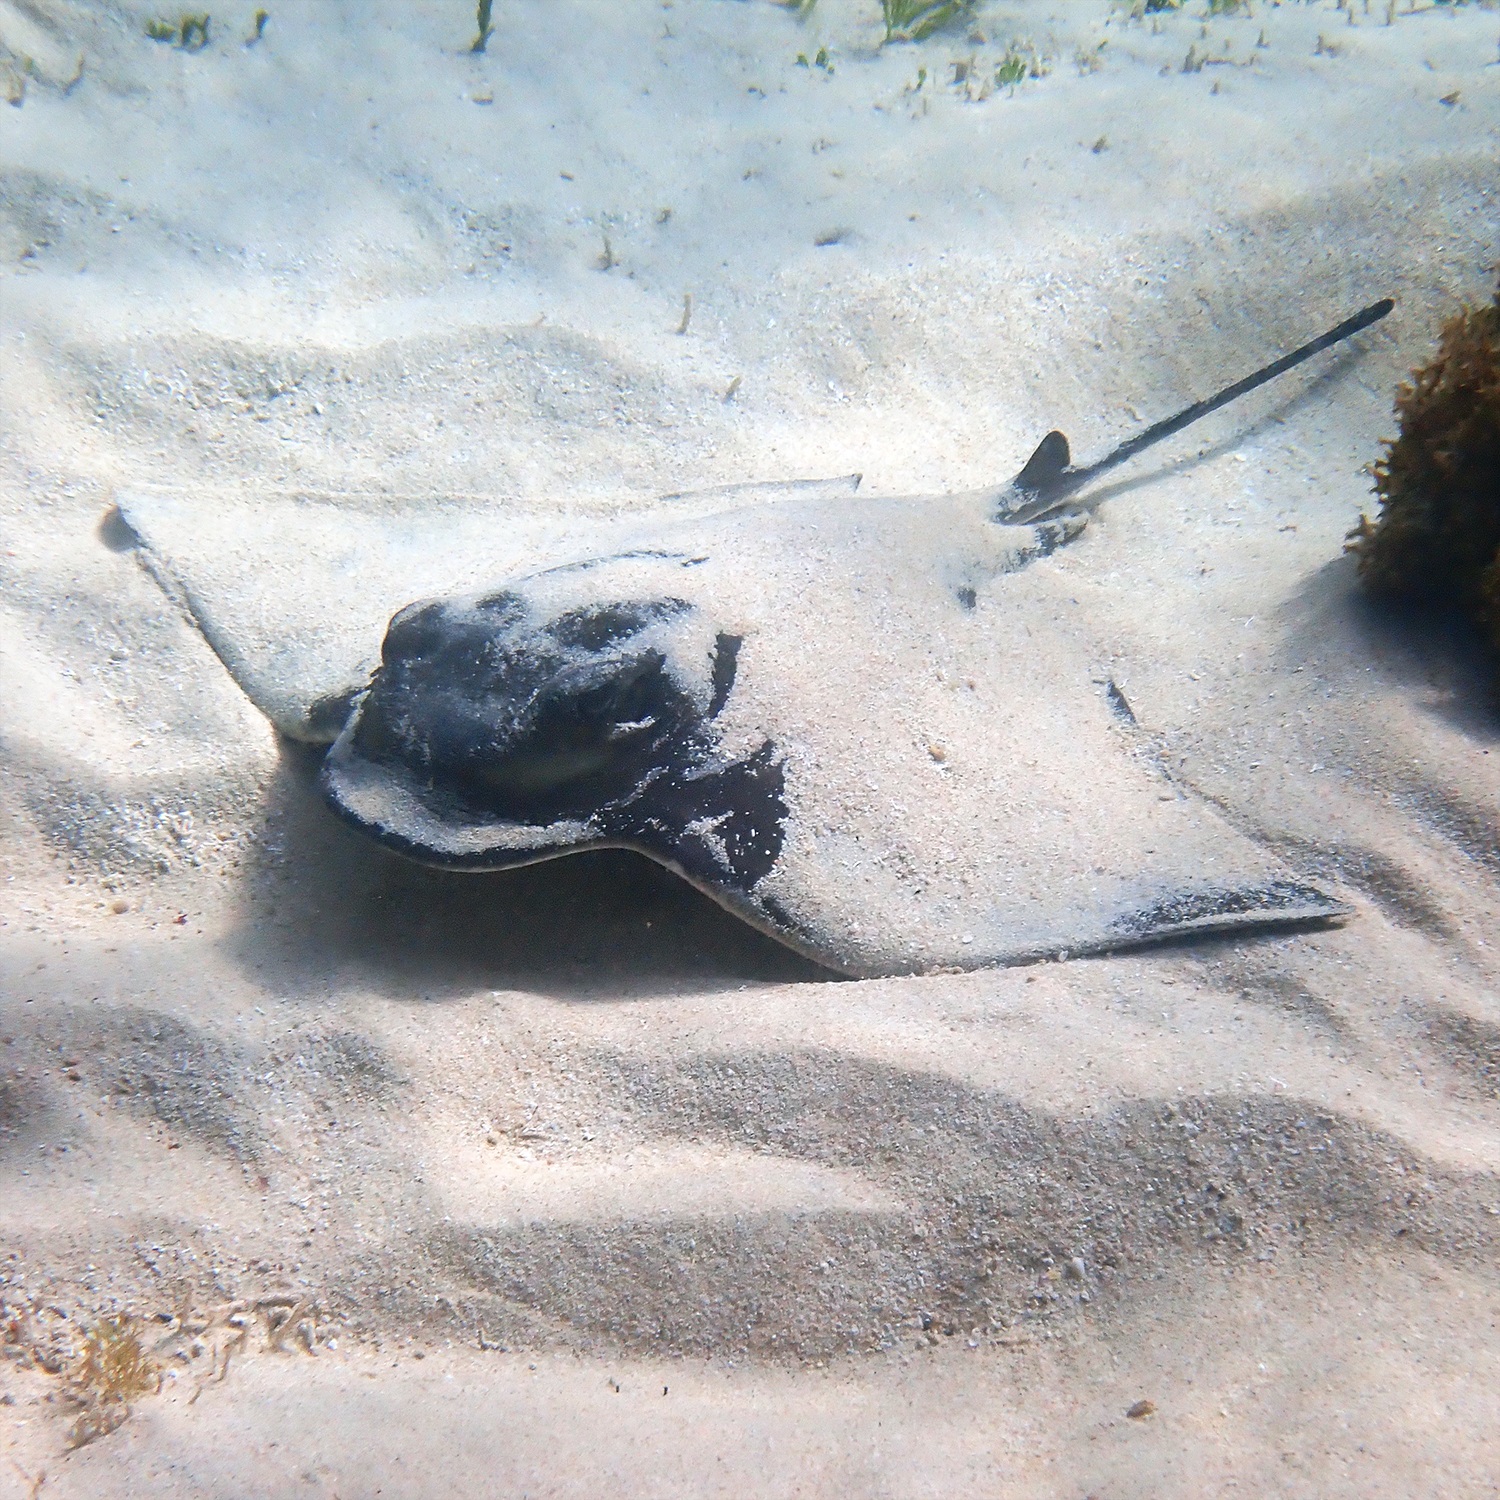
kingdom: Animalia
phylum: Chordata
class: Elasmobranchii
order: Myliobatiformes
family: Myliobatidae
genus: Myliobatis
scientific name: Myliobatis tenuicaudatus
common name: Eagle ray
